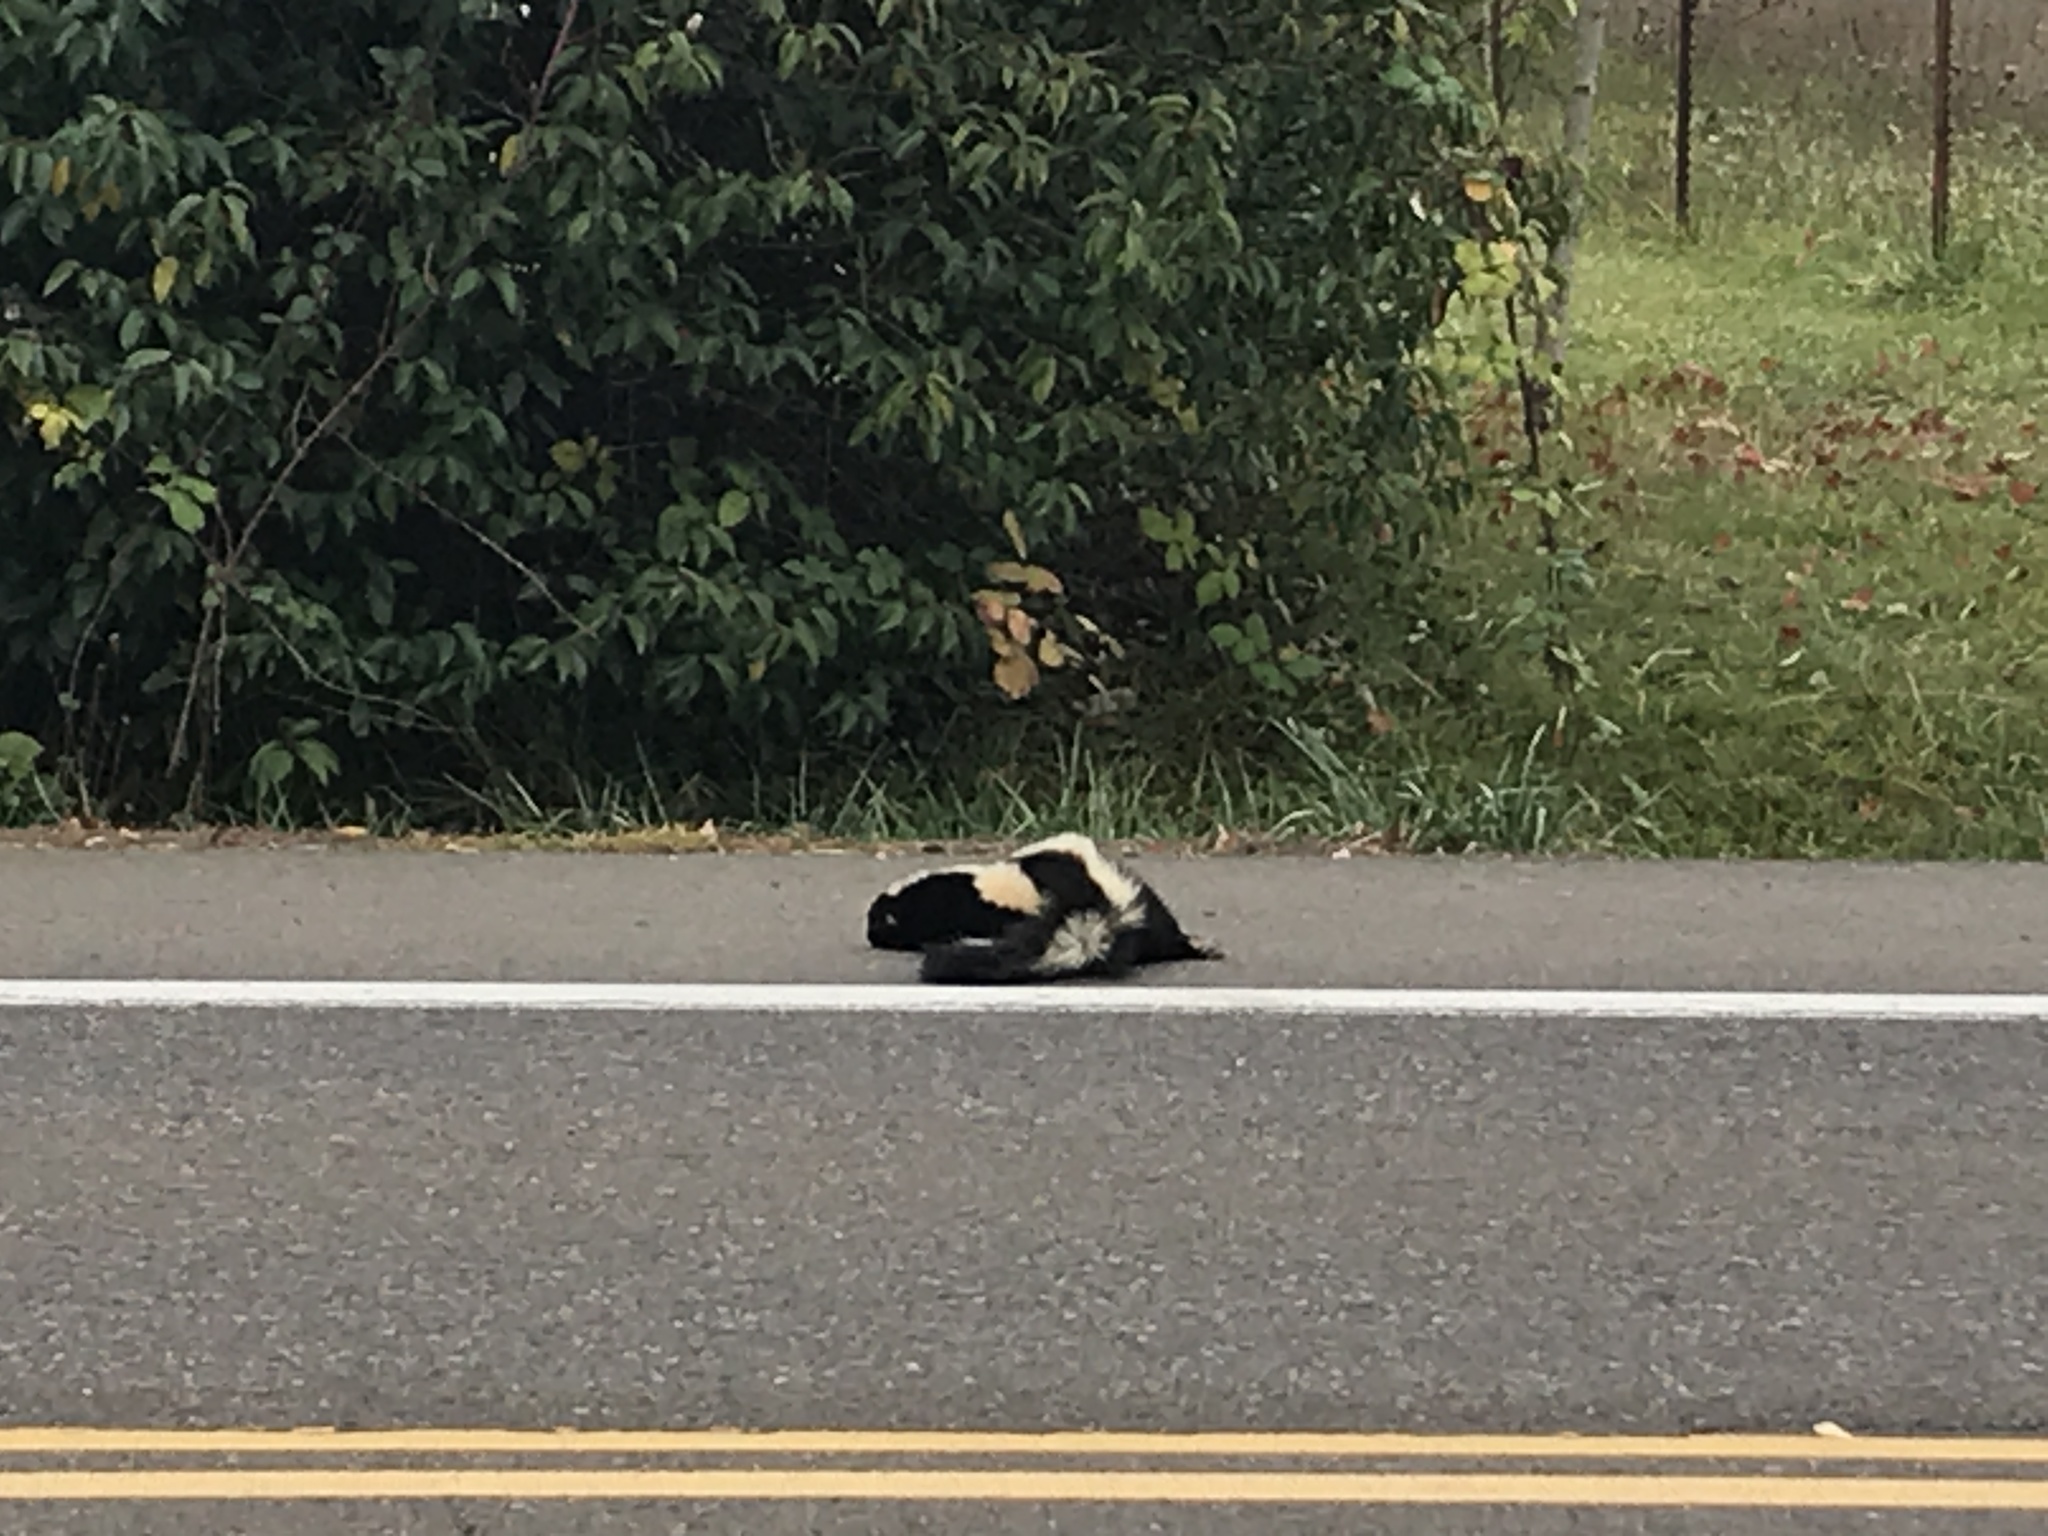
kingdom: Animalia
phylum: Chordata
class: Mammalia
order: Carnivora
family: Mephitidae
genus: Mephitis
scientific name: Mephitis mephitis
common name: Striped skunk
